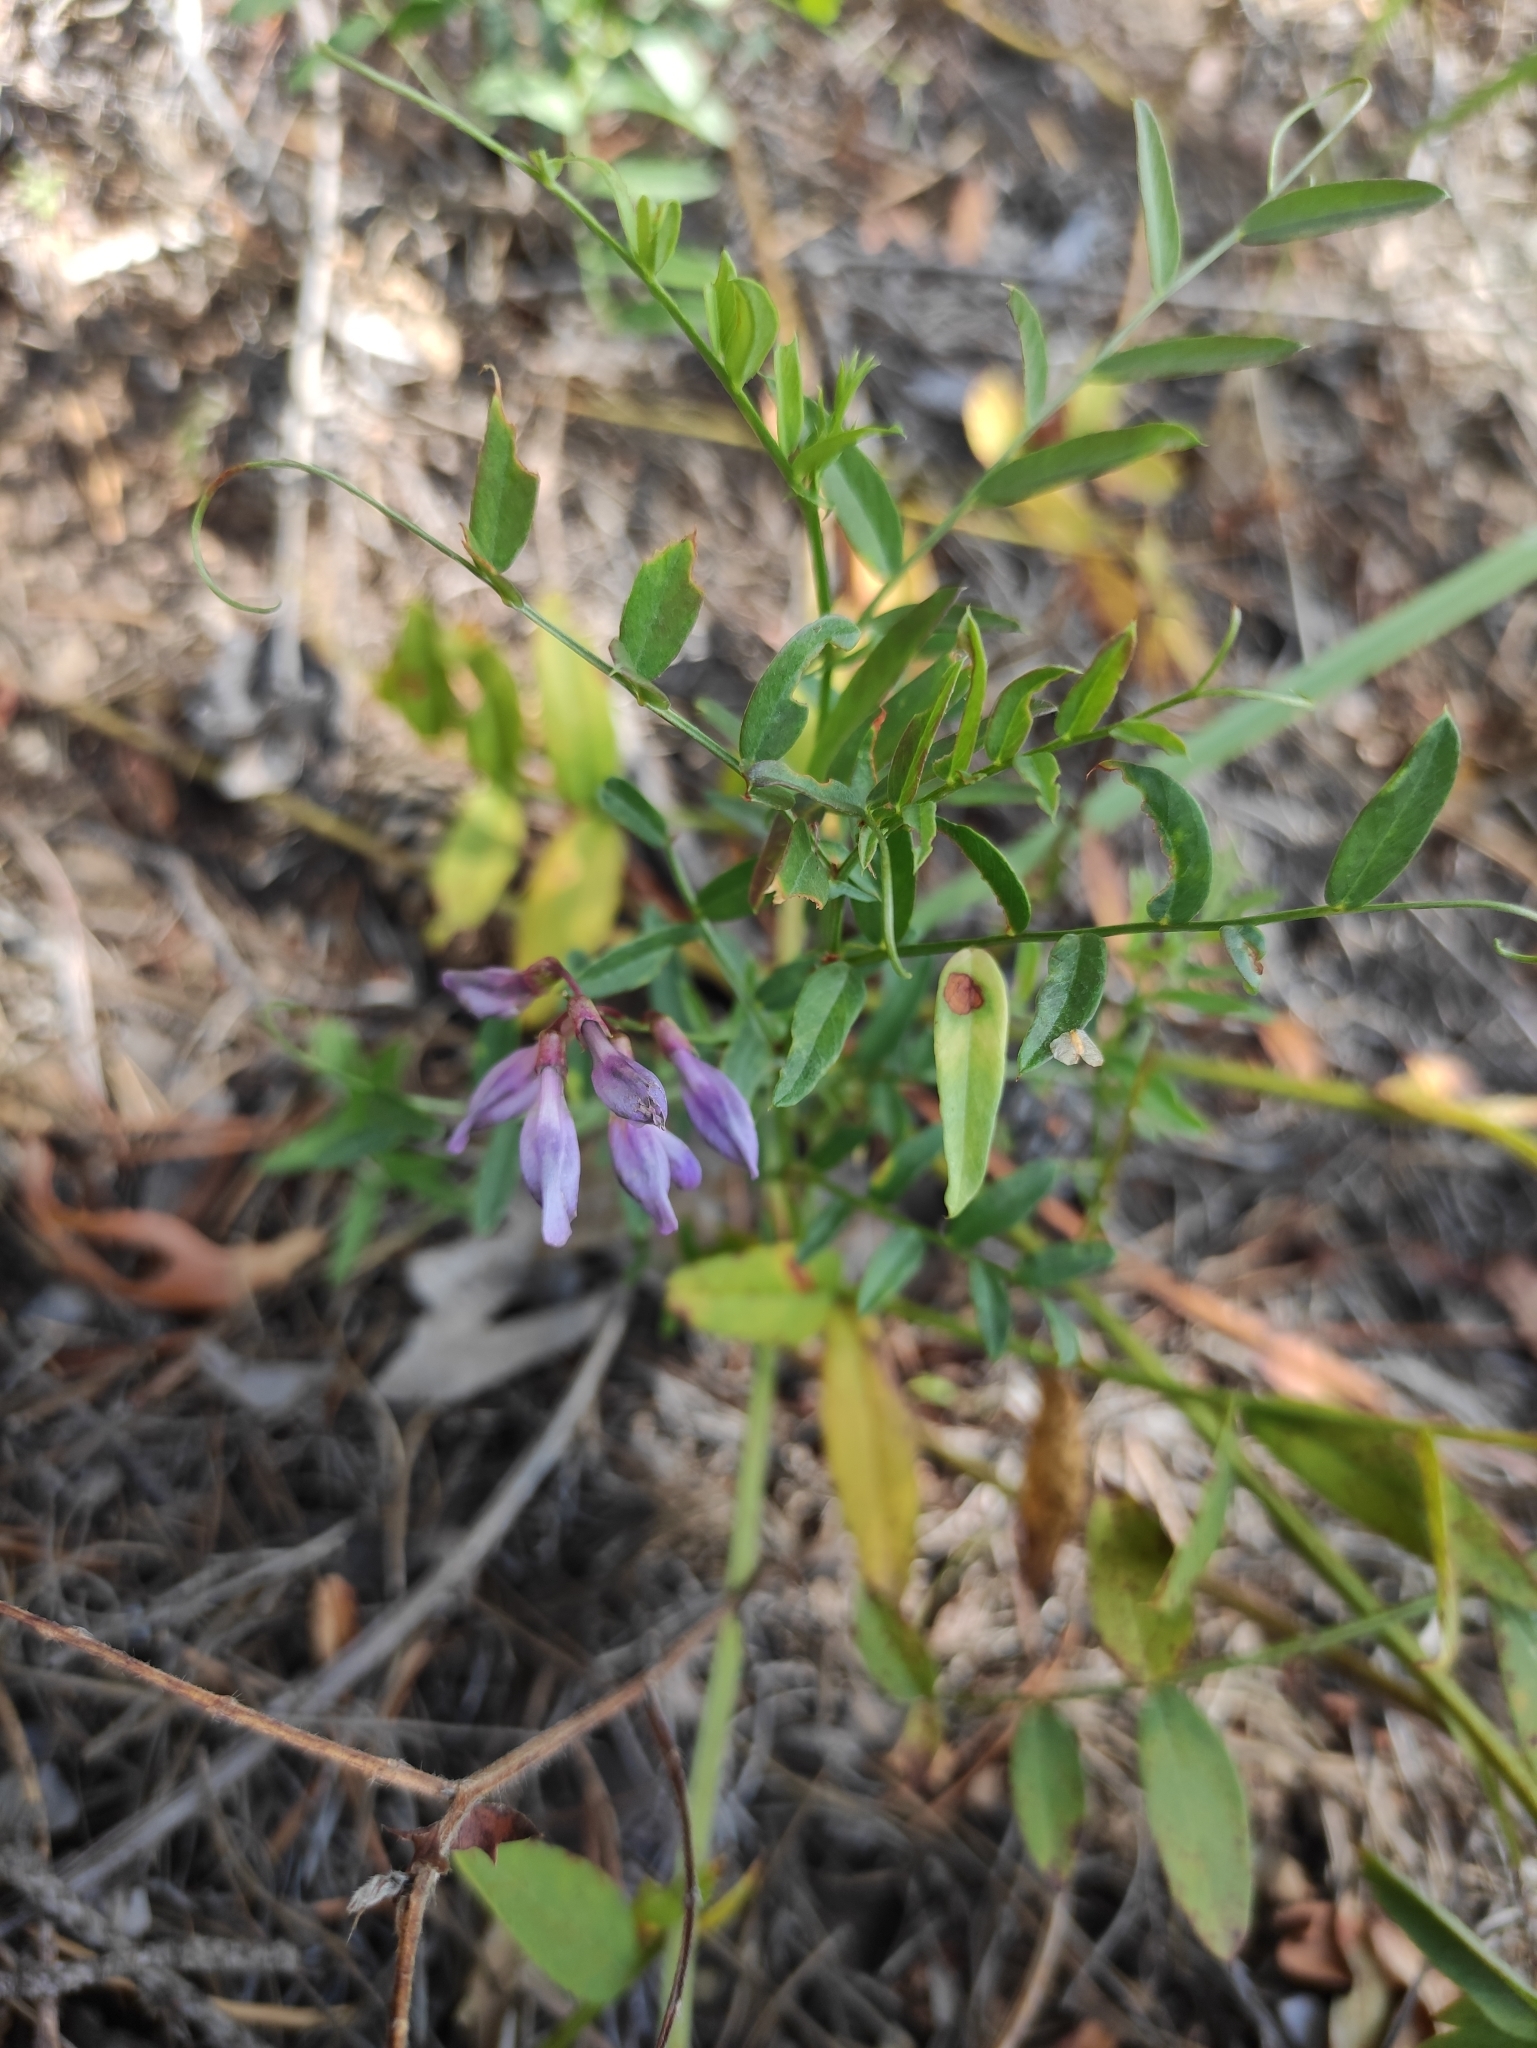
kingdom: Plantae
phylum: Tracheophyta
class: Magnoliopsida
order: Fabales
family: Fabaceae
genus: Vicia
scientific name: Vicia amoena
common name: Cheder ebs
